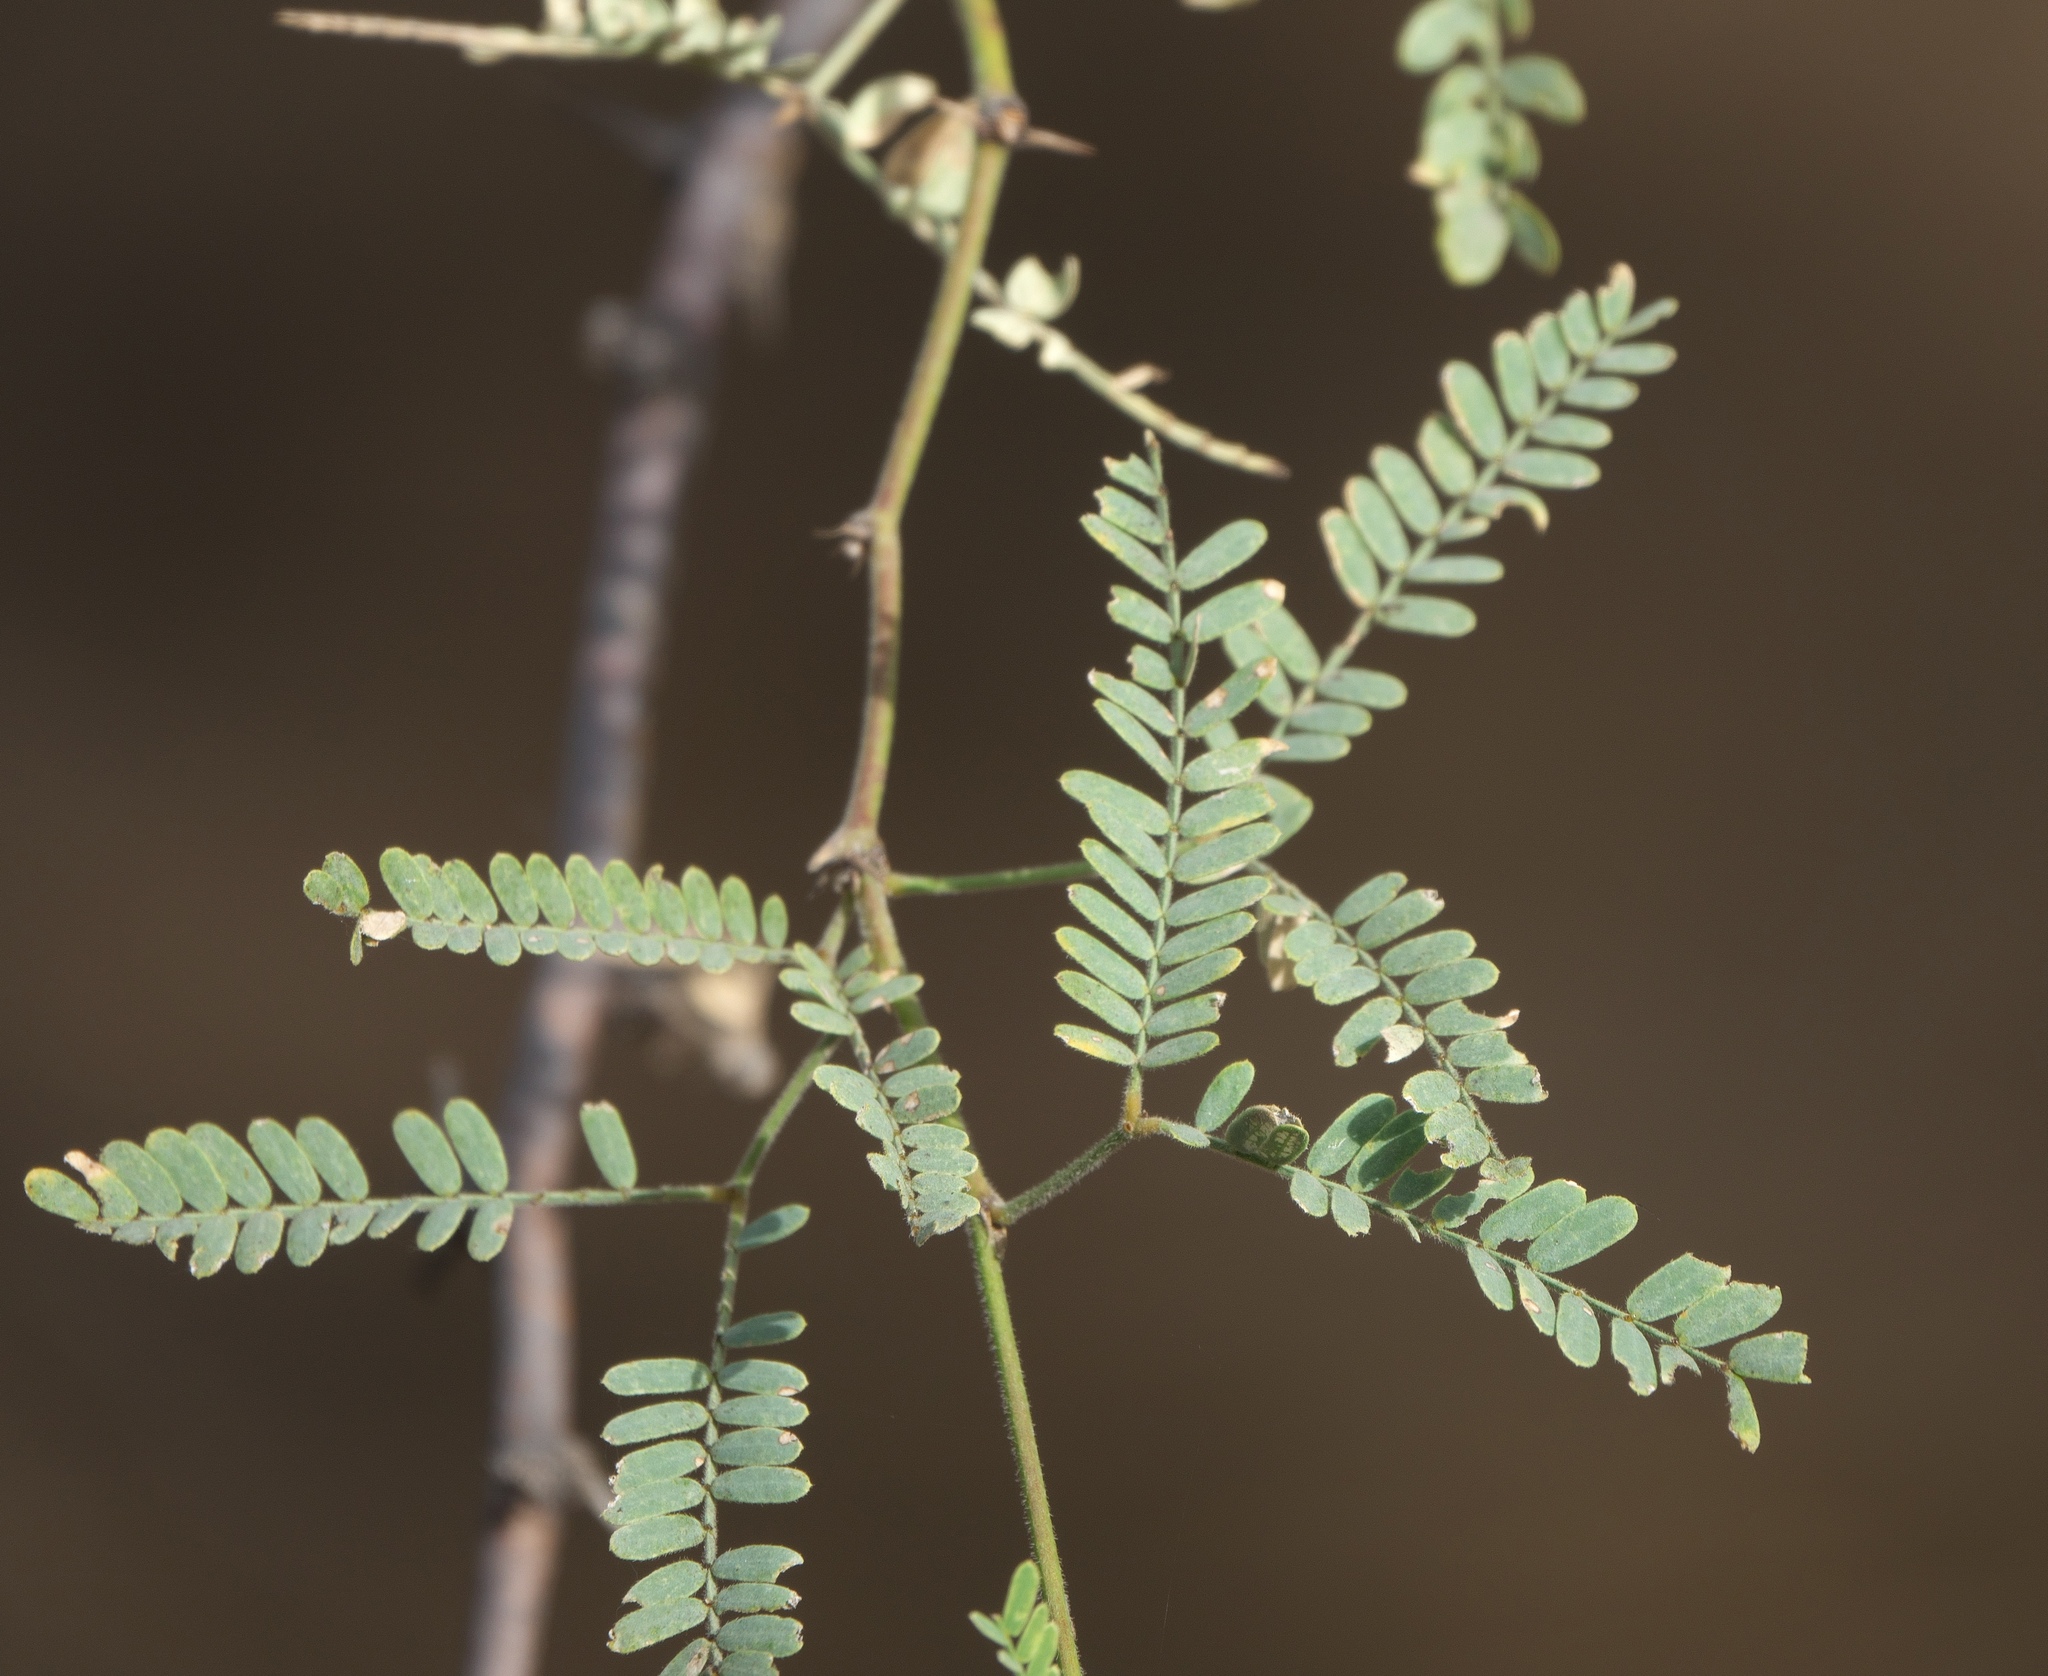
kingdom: Plantae
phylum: Tracheophyta
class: Magnoliopsida
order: Fabales
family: Fabaceae
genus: Prosopis
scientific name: Prosopis velutina
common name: Velvet mesquite
